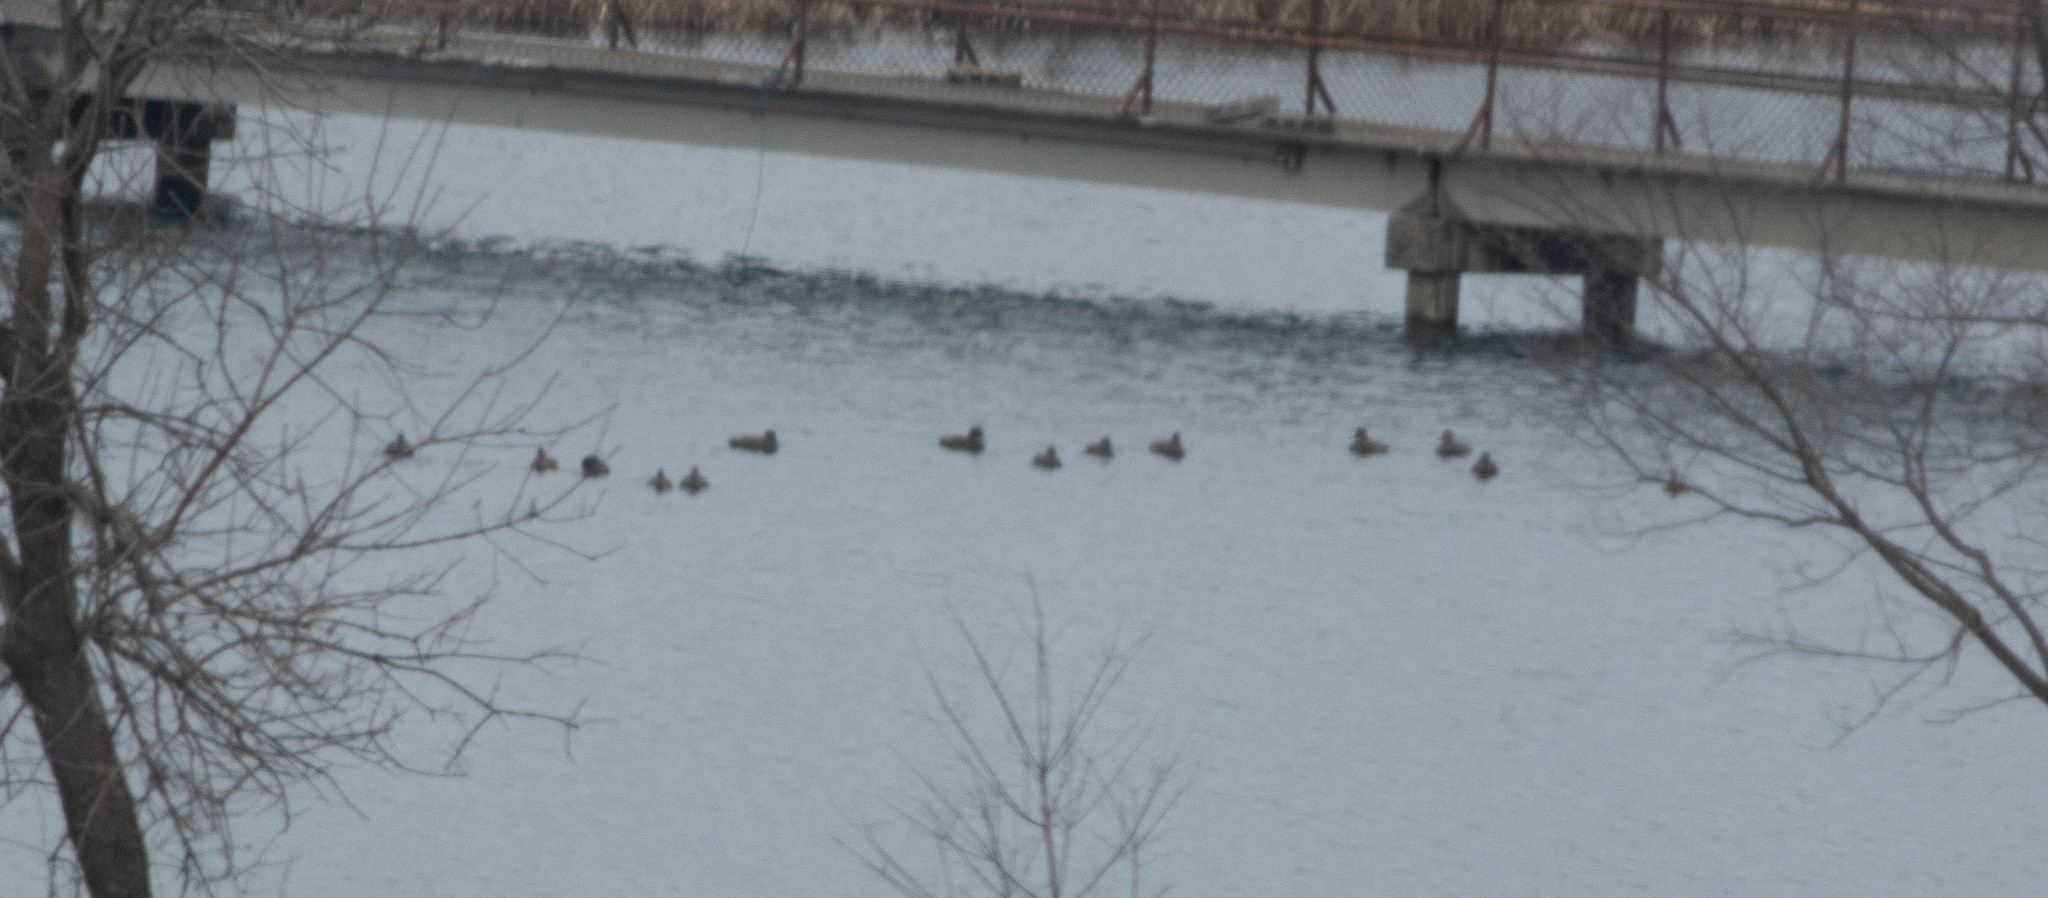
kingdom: Animalia
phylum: Chordata
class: Aves
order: Anseriformes
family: Anatidae
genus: Mareca
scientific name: Mareca strepera
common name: Gadwall
